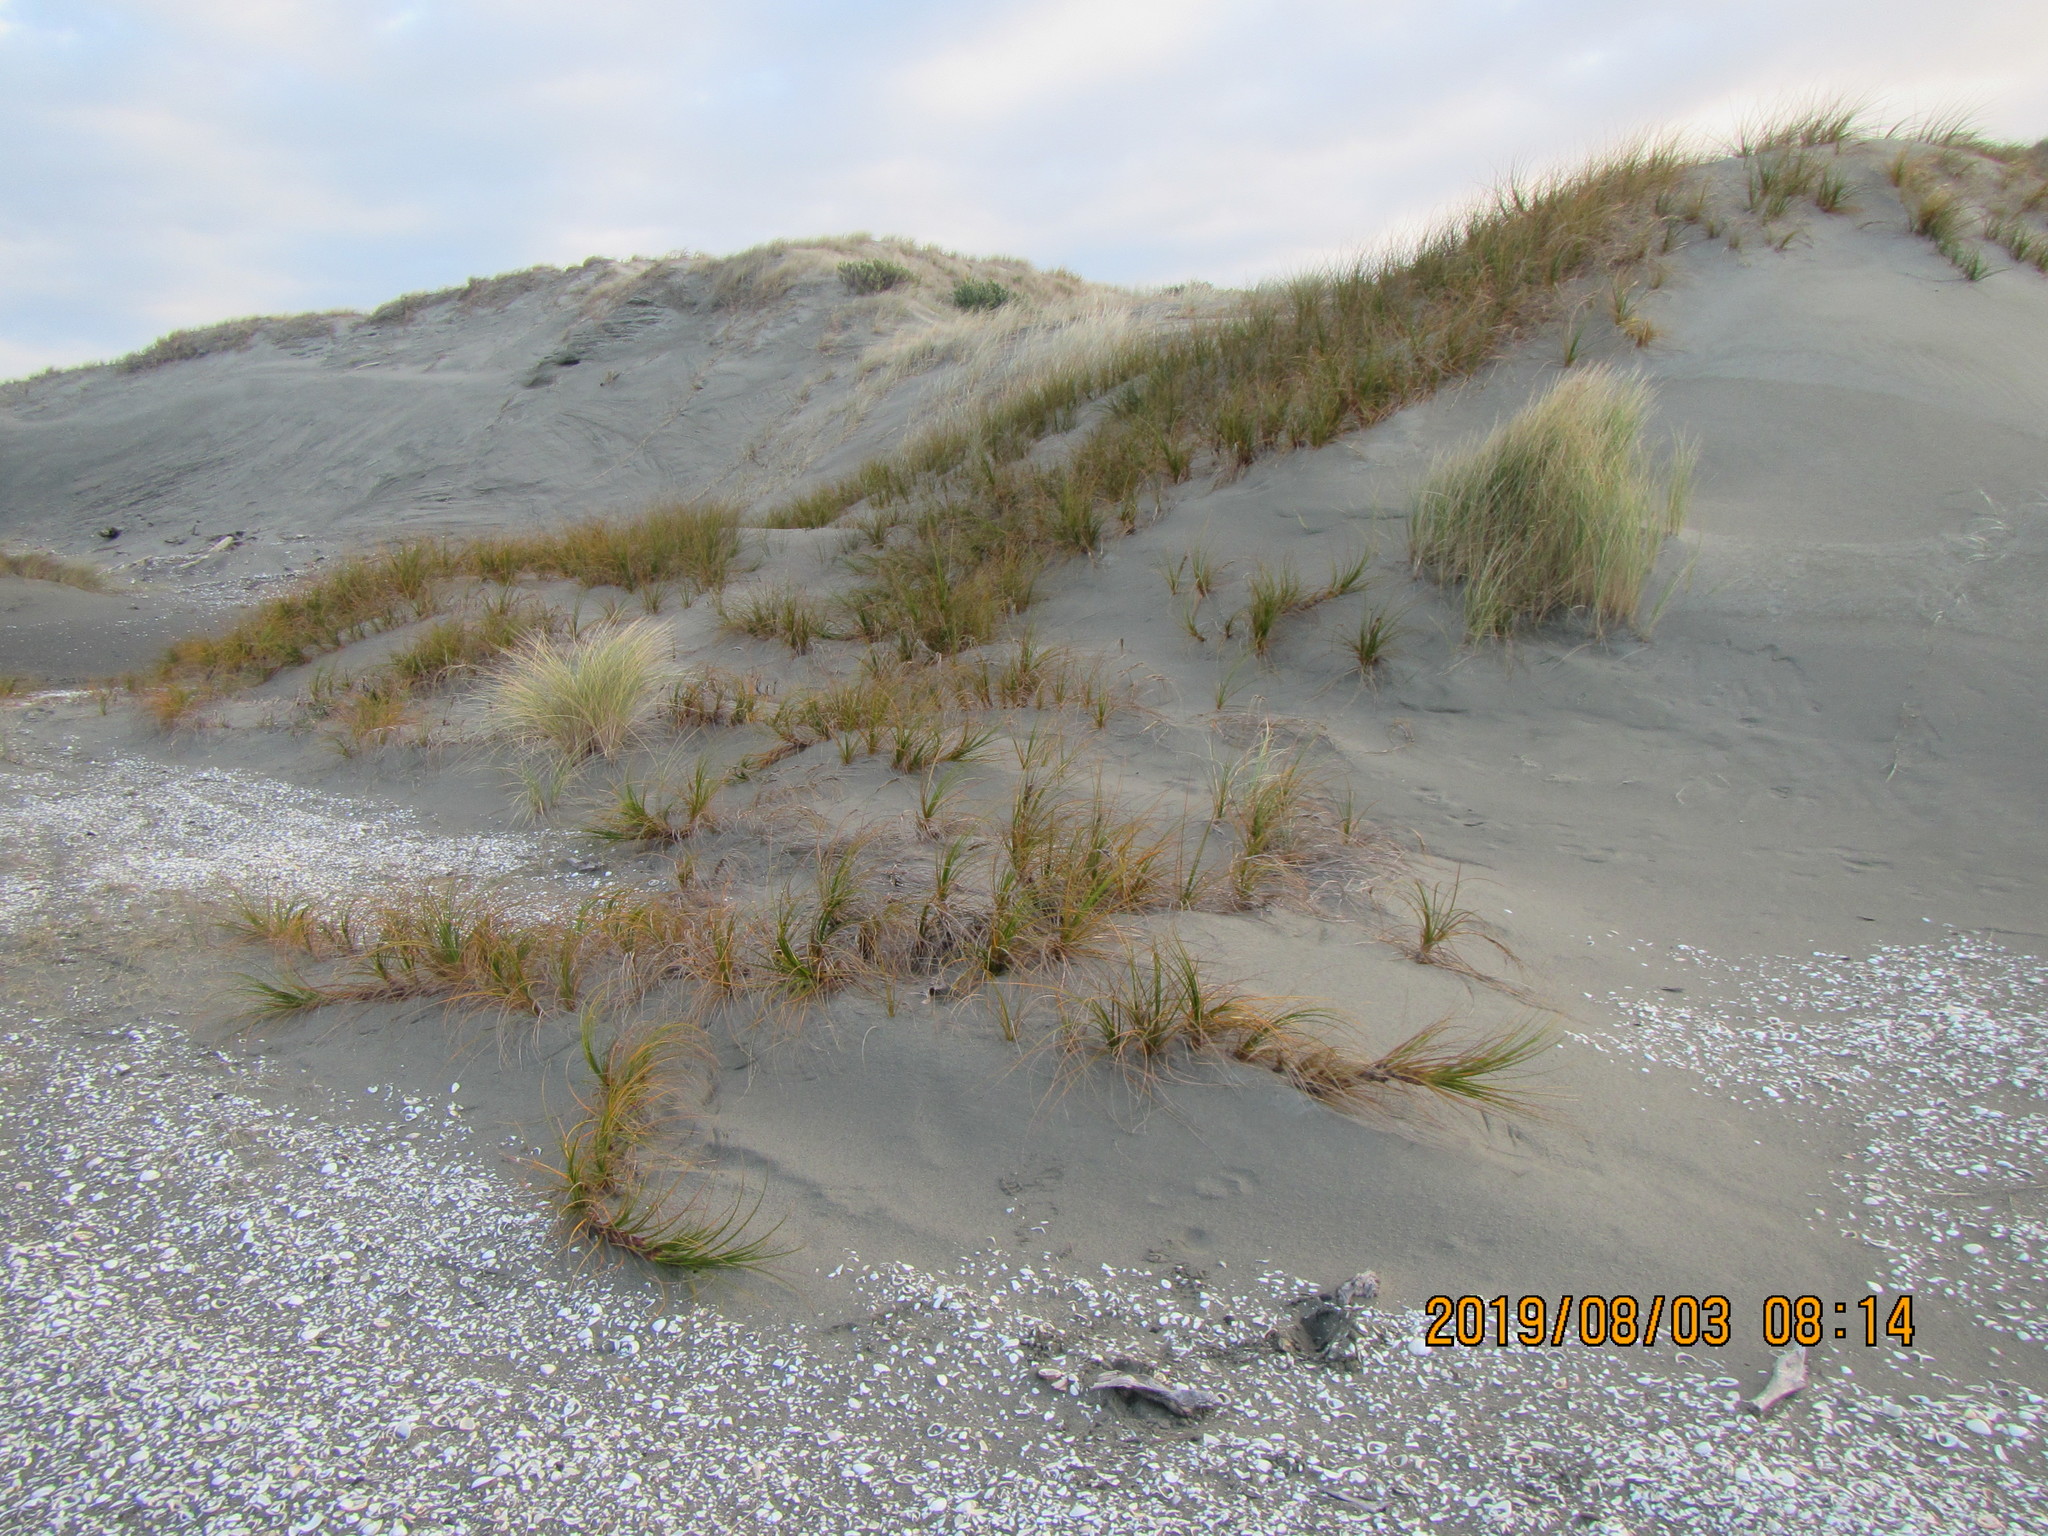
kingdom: Plantae
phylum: Tracheophyta
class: Liliopsida
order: Poales
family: Cyperaceae
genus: Ficinia
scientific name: Ficinia spiralis
